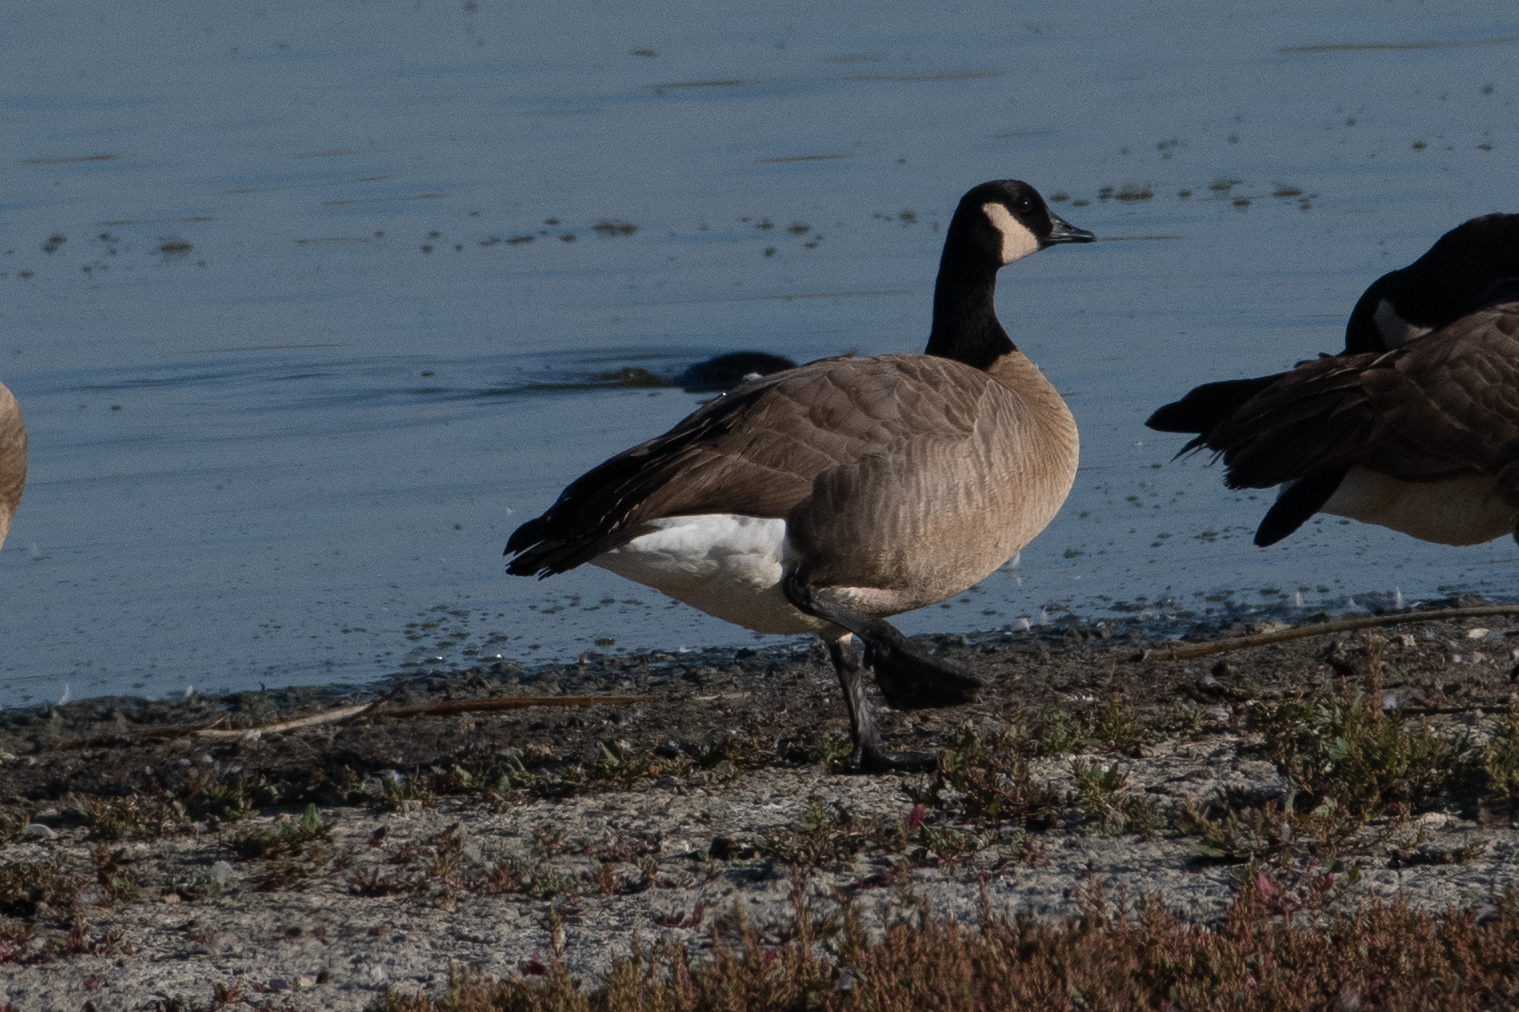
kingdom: Animalia
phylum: Chordata
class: Aves
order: Anseriformes
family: Anatidae
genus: Branta
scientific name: Branta canadensis
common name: Canada goose
